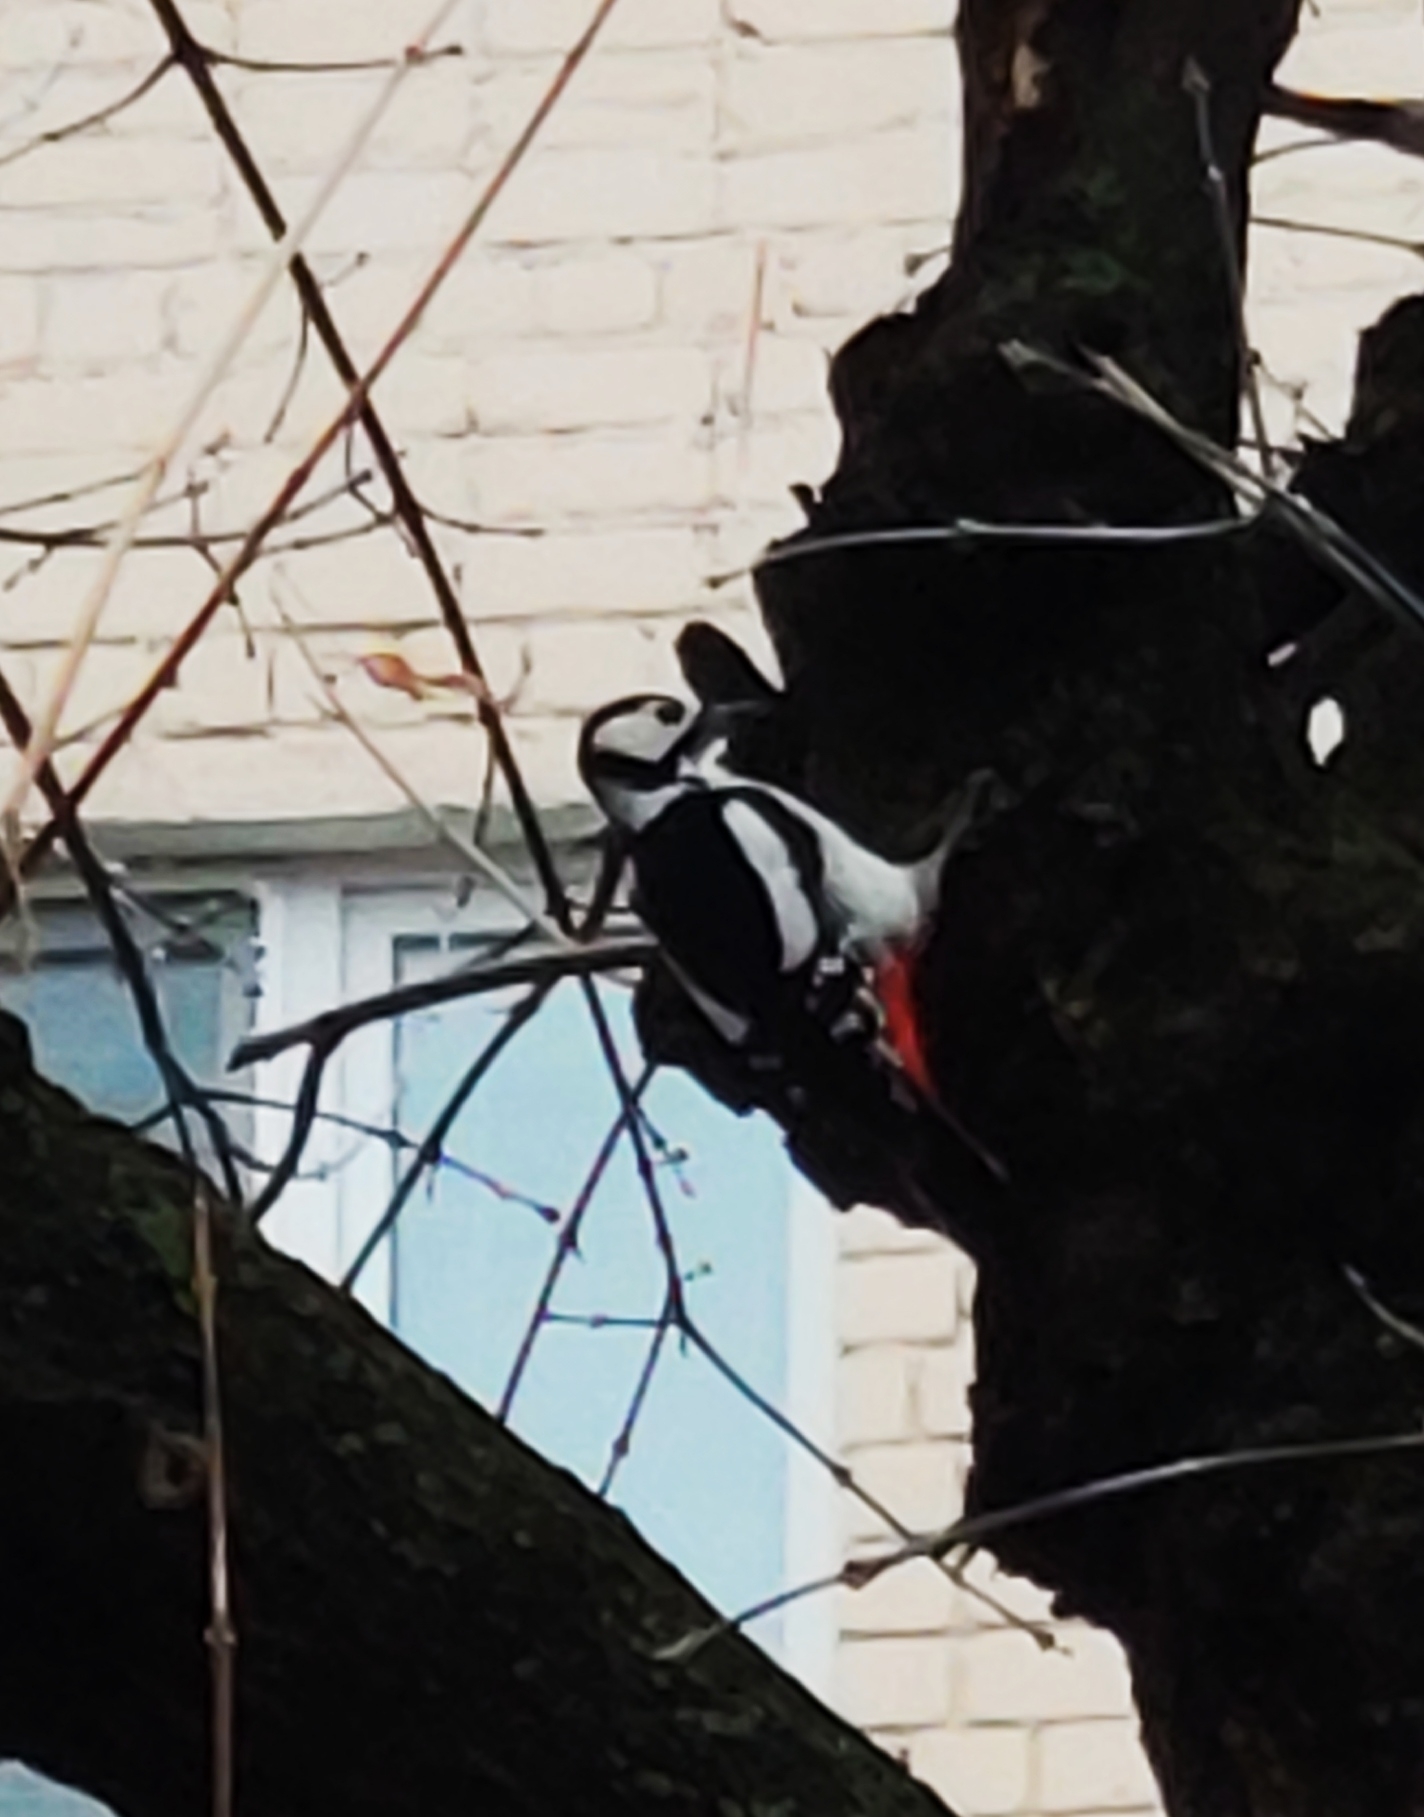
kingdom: Animalia
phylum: Chordata
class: Aves
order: Piciformes
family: Picidae
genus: Dendrocopos
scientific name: Dendrocopos major
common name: Great spotted woodpecker
